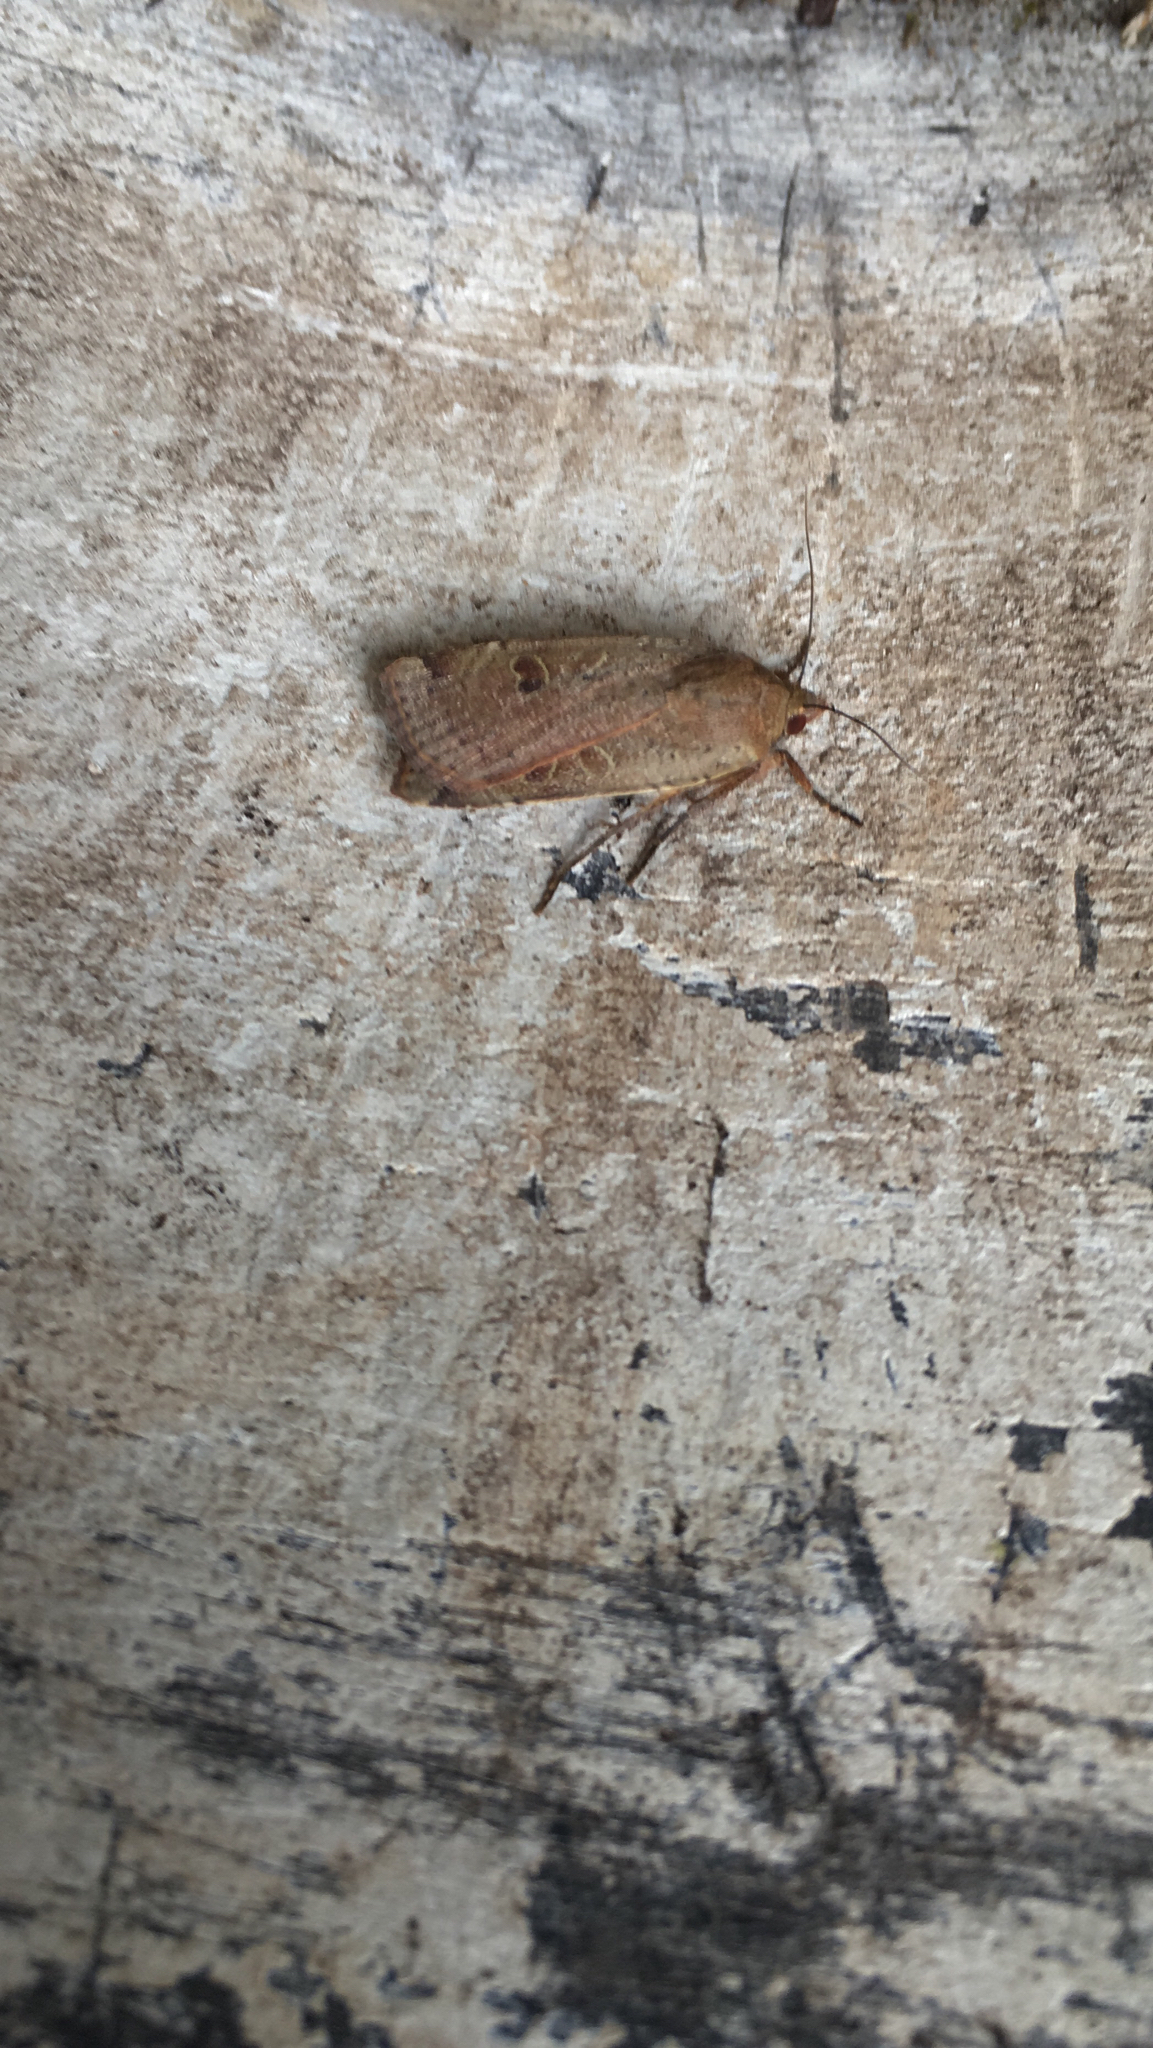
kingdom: Animalia
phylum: Arthropoda
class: Insecta
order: Lepidoptera
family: Noctuidae
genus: Noctua
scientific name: Noctua comes
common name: Lesser yellow underwing
